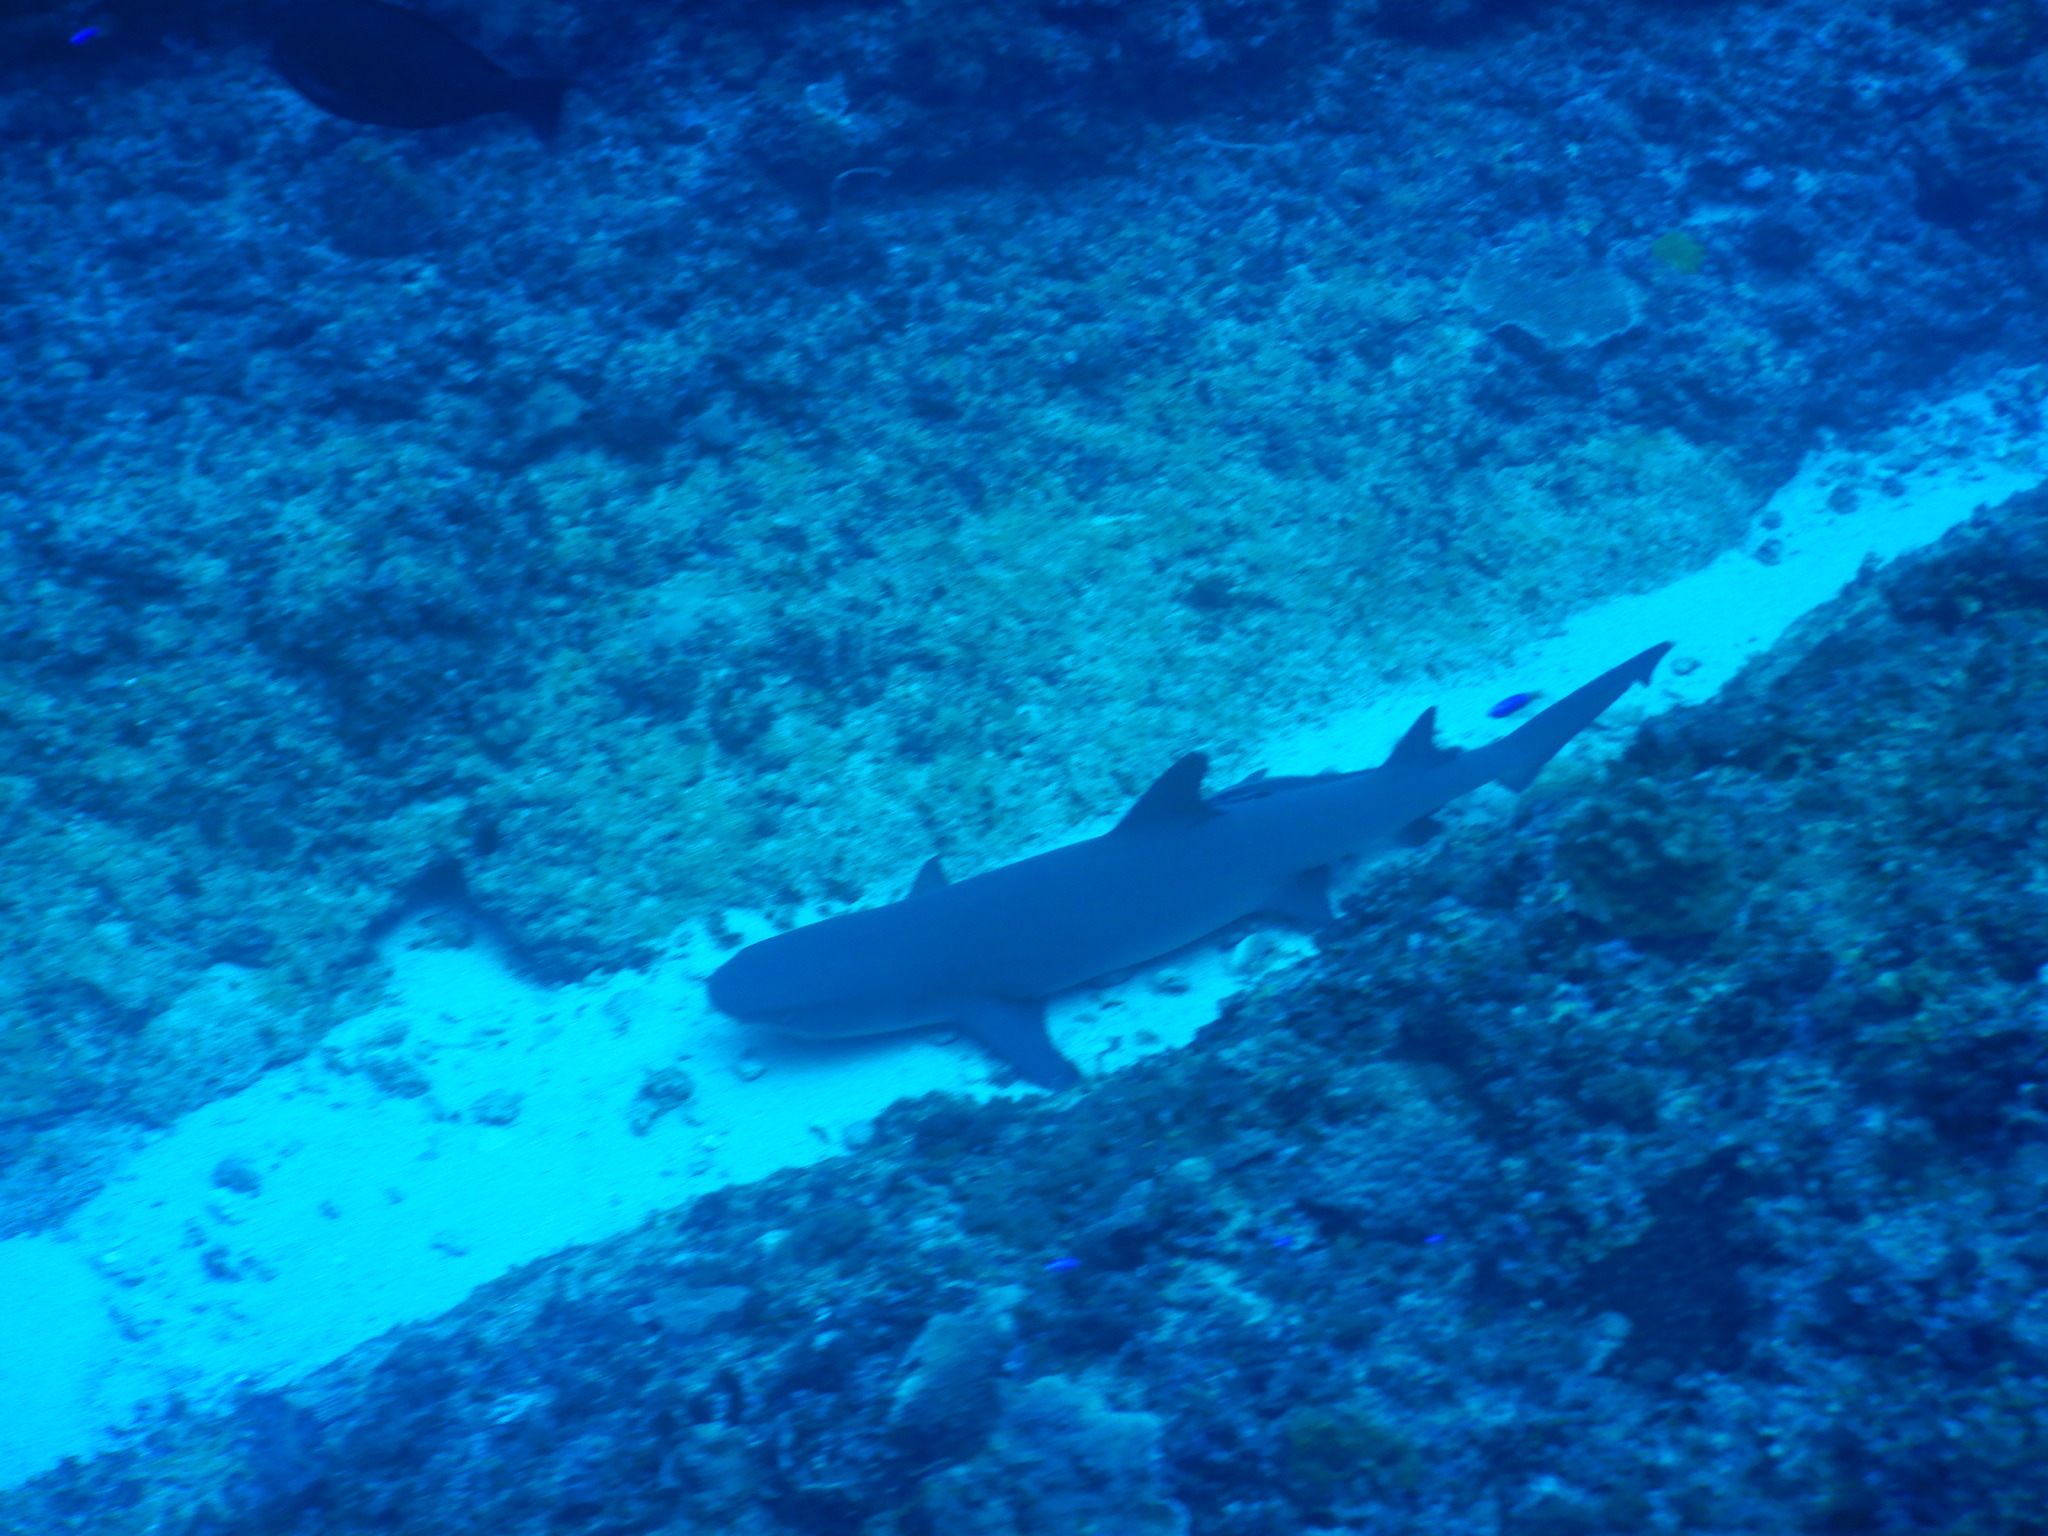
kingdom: Animalia
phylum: Chordata
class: Elasmobranchii
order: Carcharhiniformes
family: Carcharhinidae
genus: Triaenodon
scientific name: Triaenodon obesus
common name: Whitetip reef shark
